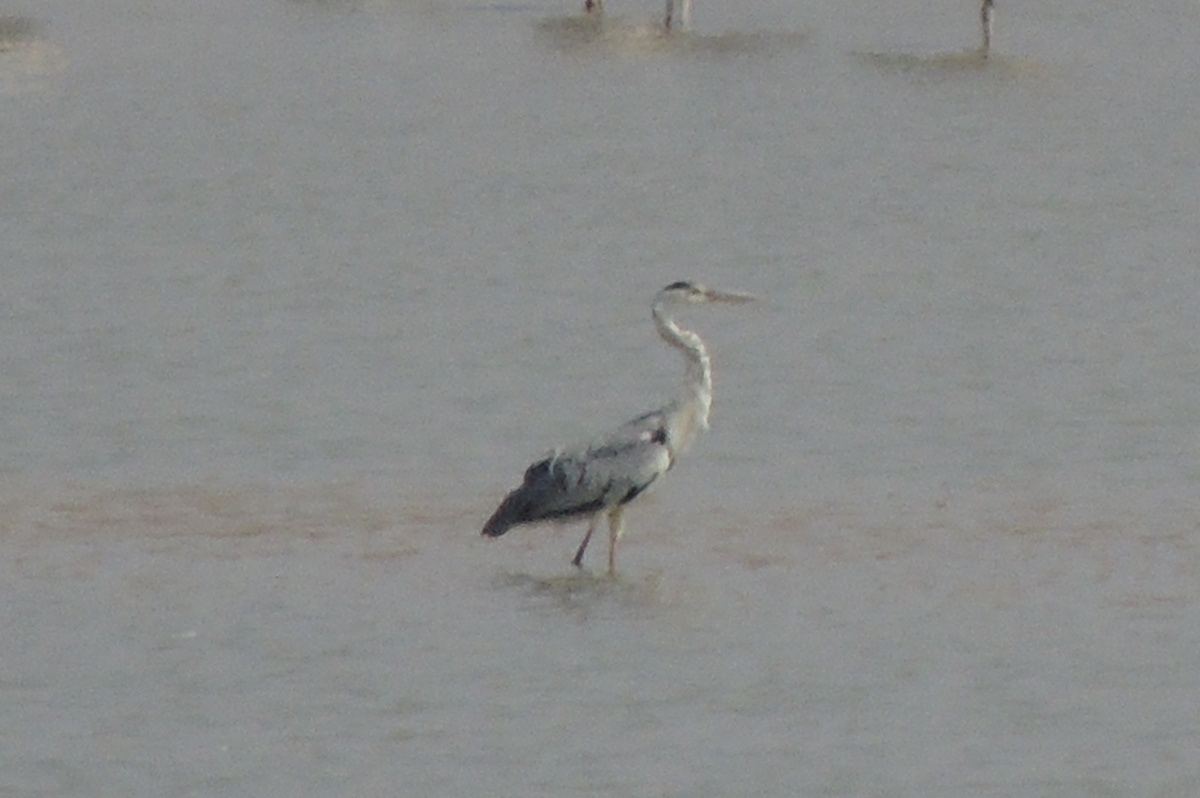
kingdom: Animalia
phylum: Chordata
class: Aves
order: Pelecaniformes
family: Ardeidae
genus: Ardea
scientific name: Ardea cinerea
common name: Grey heron
